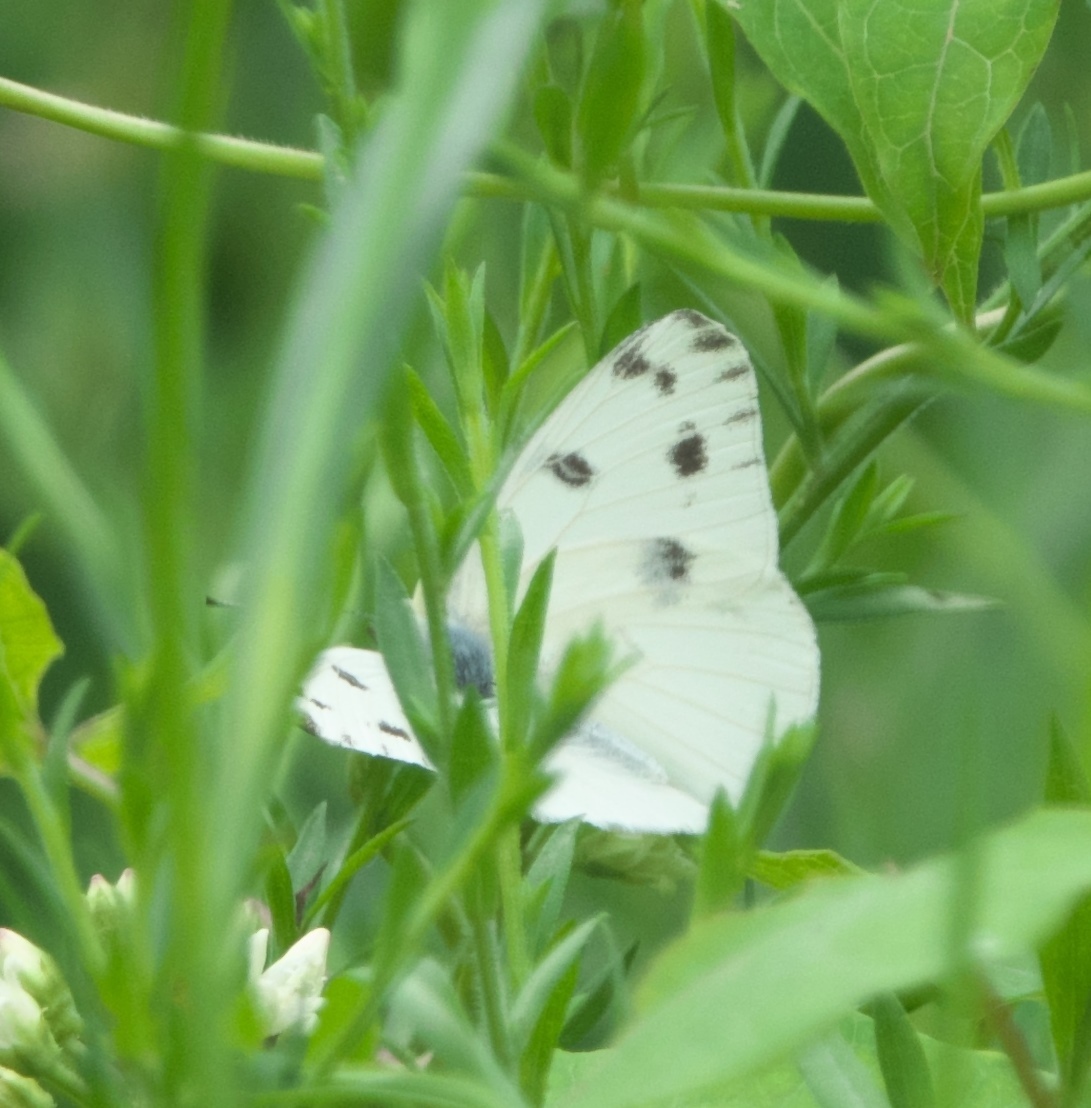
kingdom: Animalia
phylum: Arthropoda
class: Insecta
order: Lepidoptera
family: Pieridae
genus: Pontia
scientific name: Pontia protodice
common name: Checkered white
